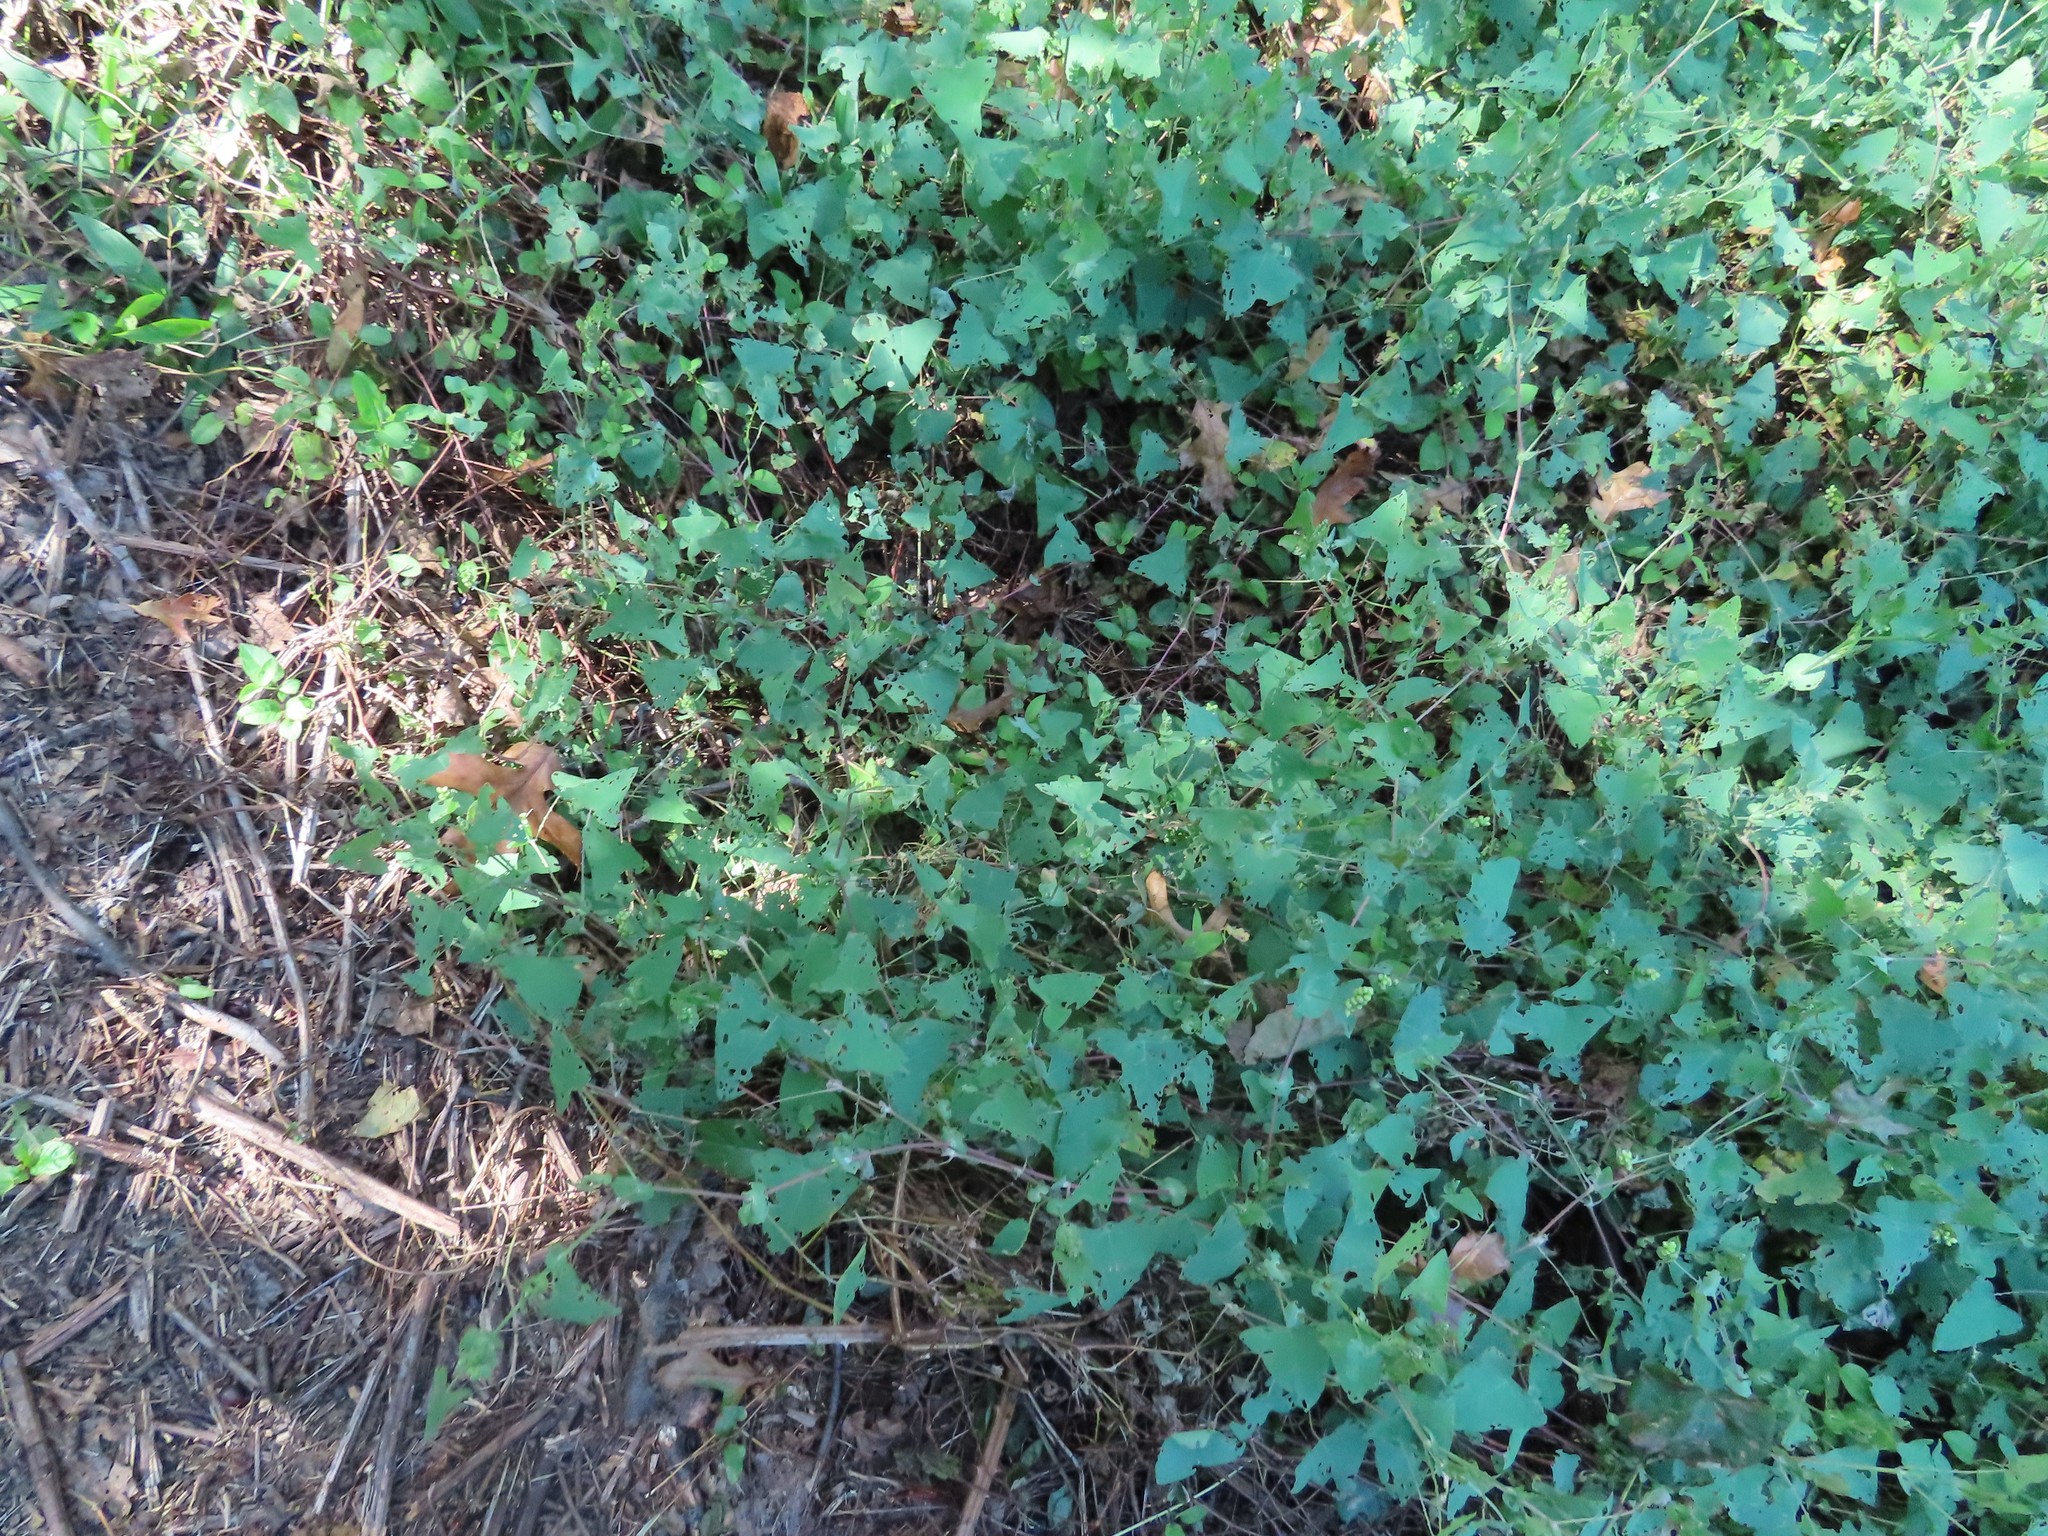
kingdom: Plantae
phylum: Tracheophyta
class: Magnoliopsida
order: Caryophyllales
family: Polygonaceae
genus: Persicaria
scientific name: Persicaria perfoliata
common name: Asiatic tearthumb
